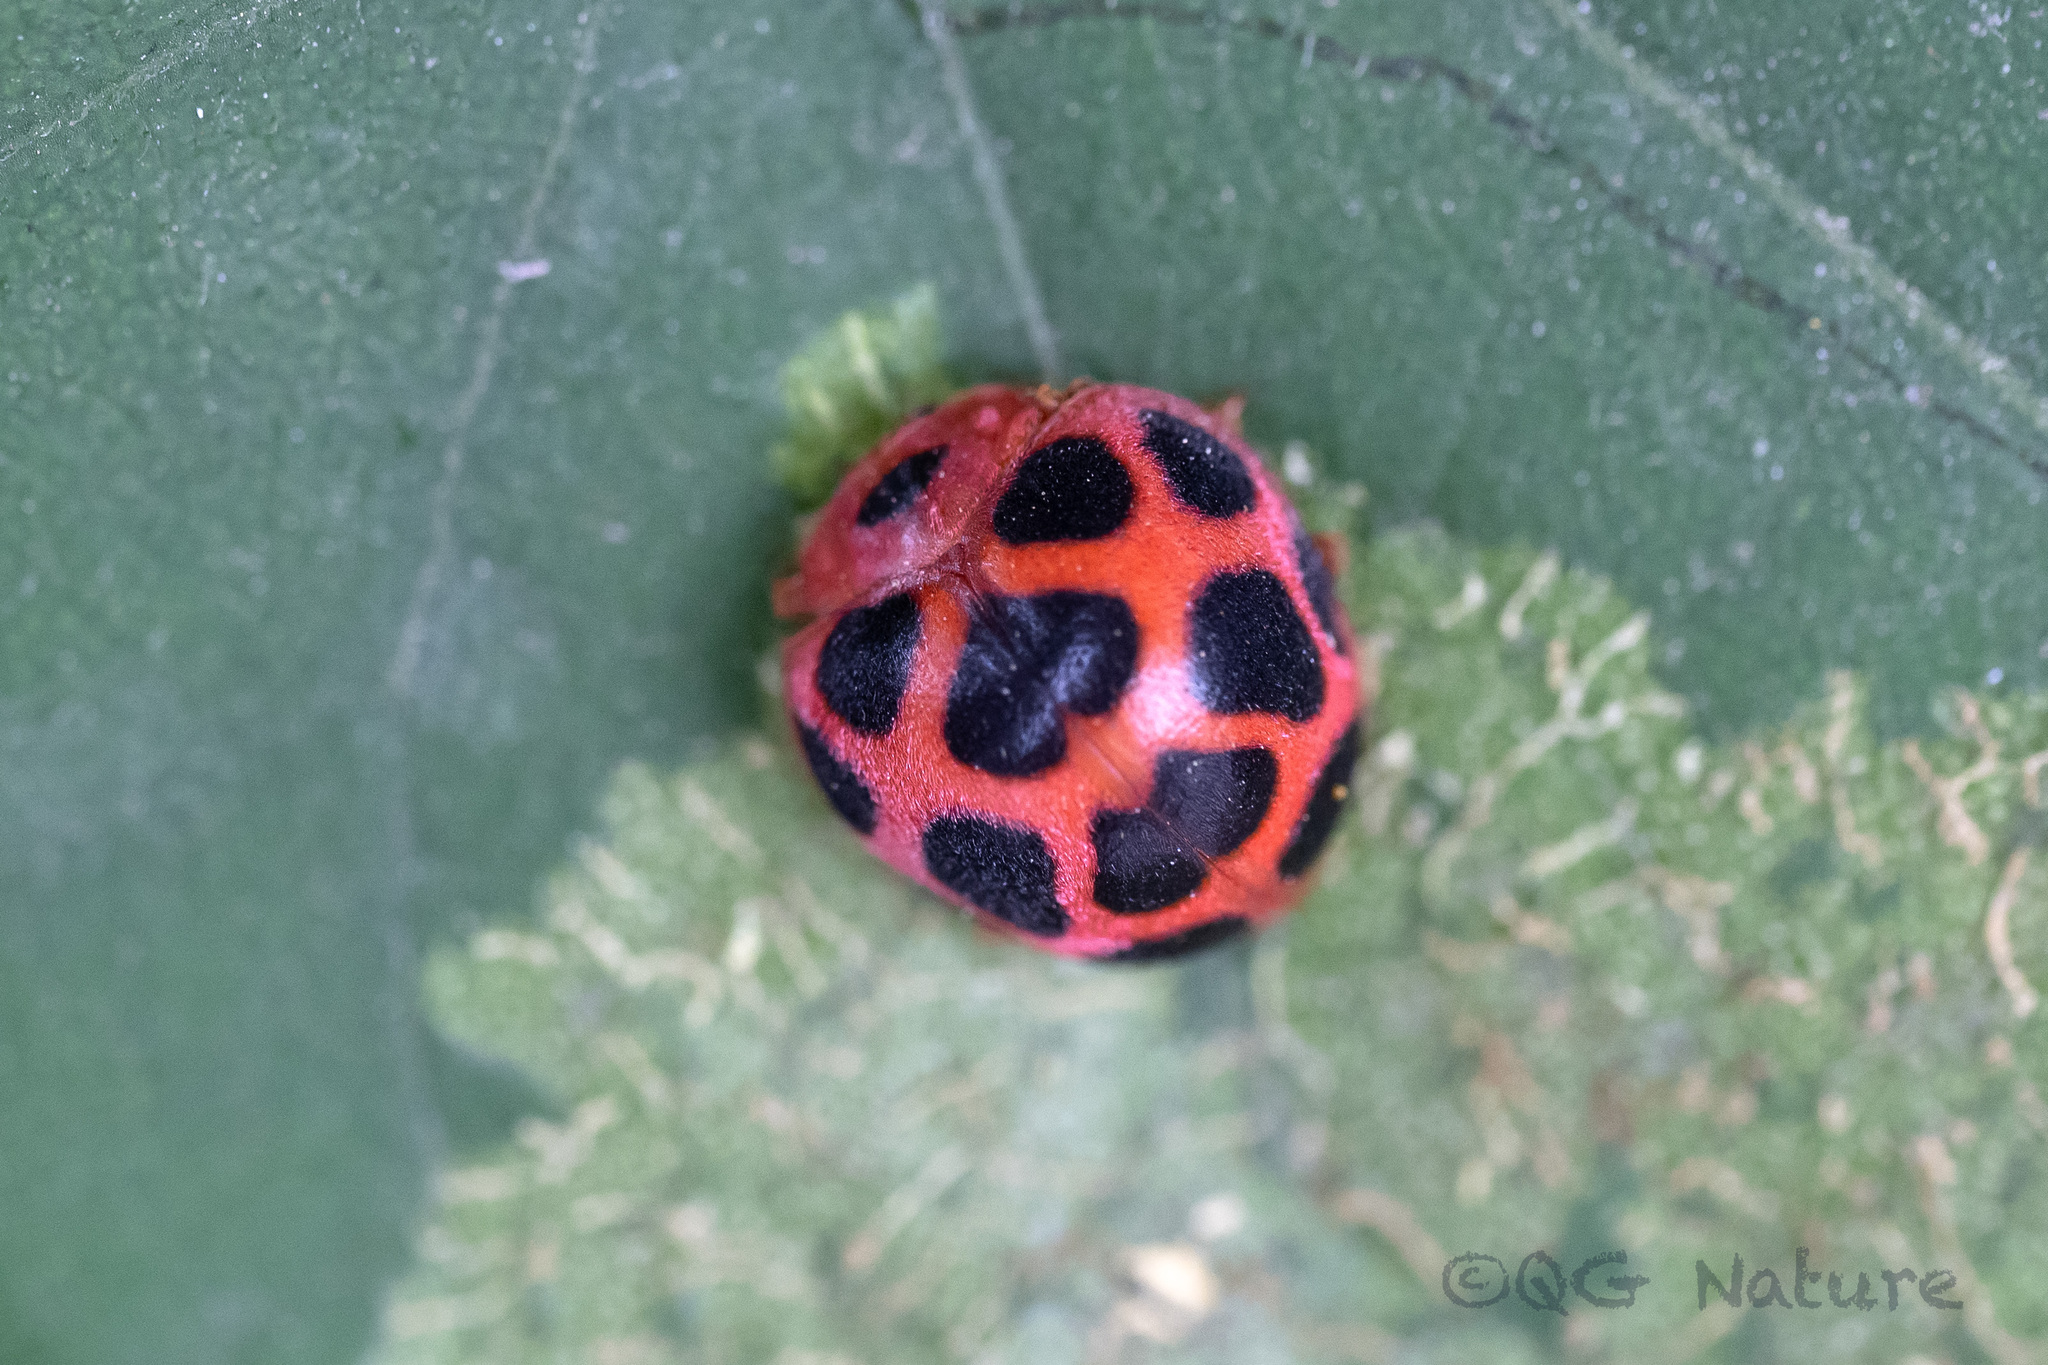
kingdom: Animalia
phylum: Arthropoda
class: Insecta
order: Coleoptera
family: Coccinellidae
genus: Diekeana
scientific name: Diekeana
